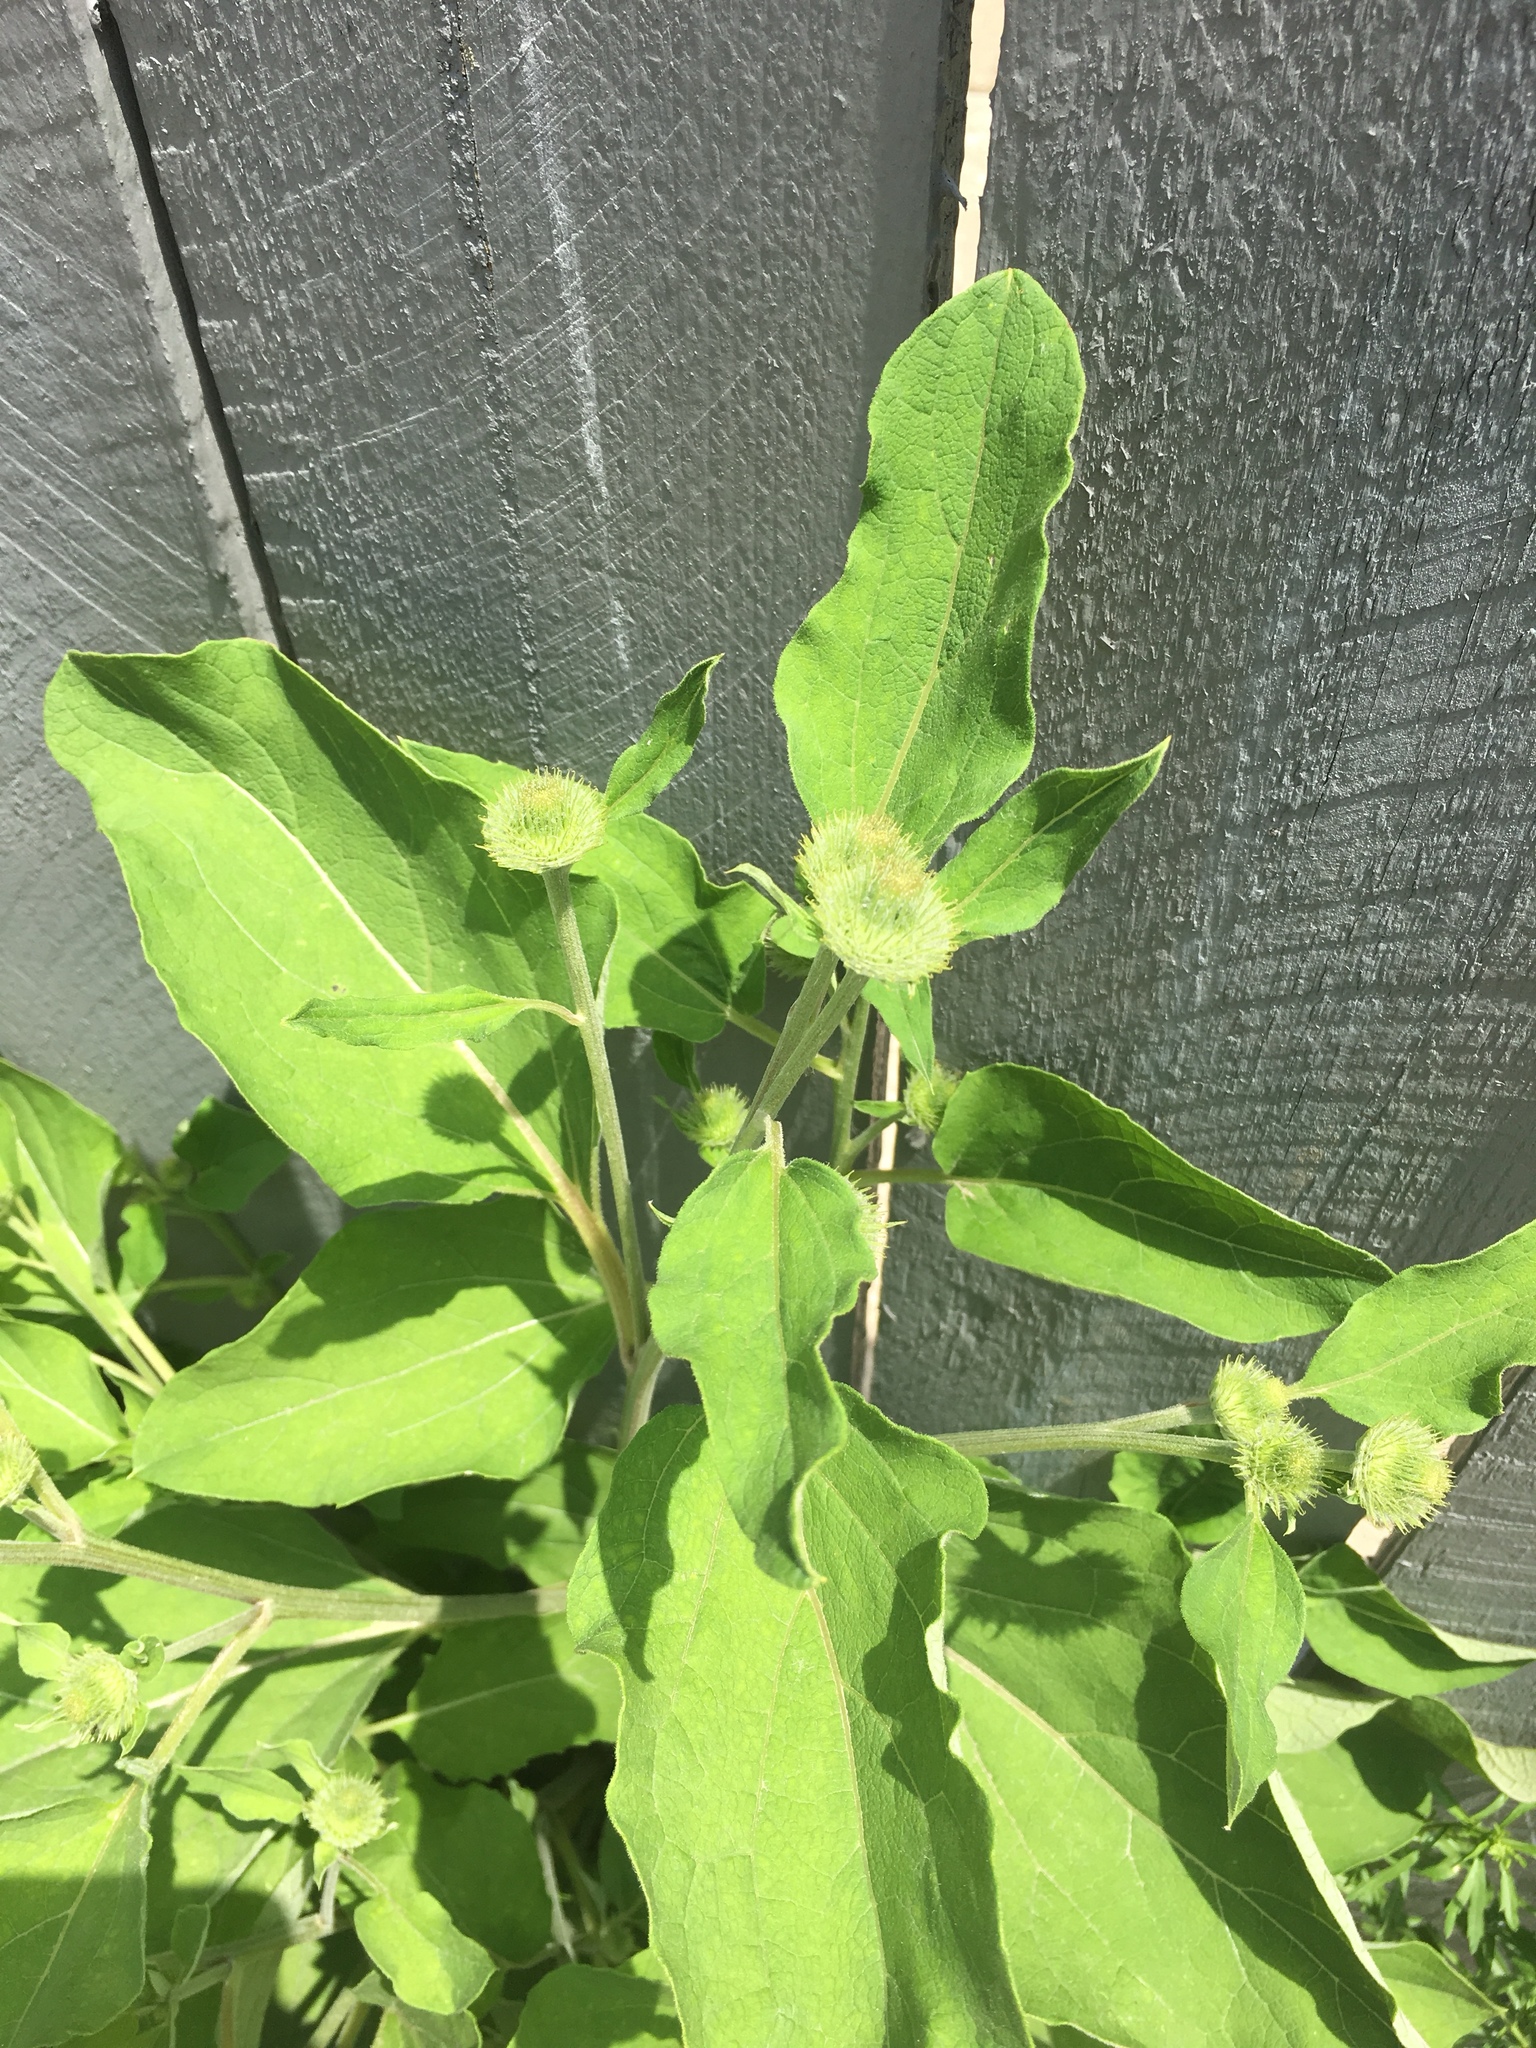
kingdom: Plantae
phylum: Tracheophyta
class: Magnoliopsida
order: Asterales
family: Asteraceae
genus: Arctium
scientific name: Arctium lappa
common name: Greater burdock
